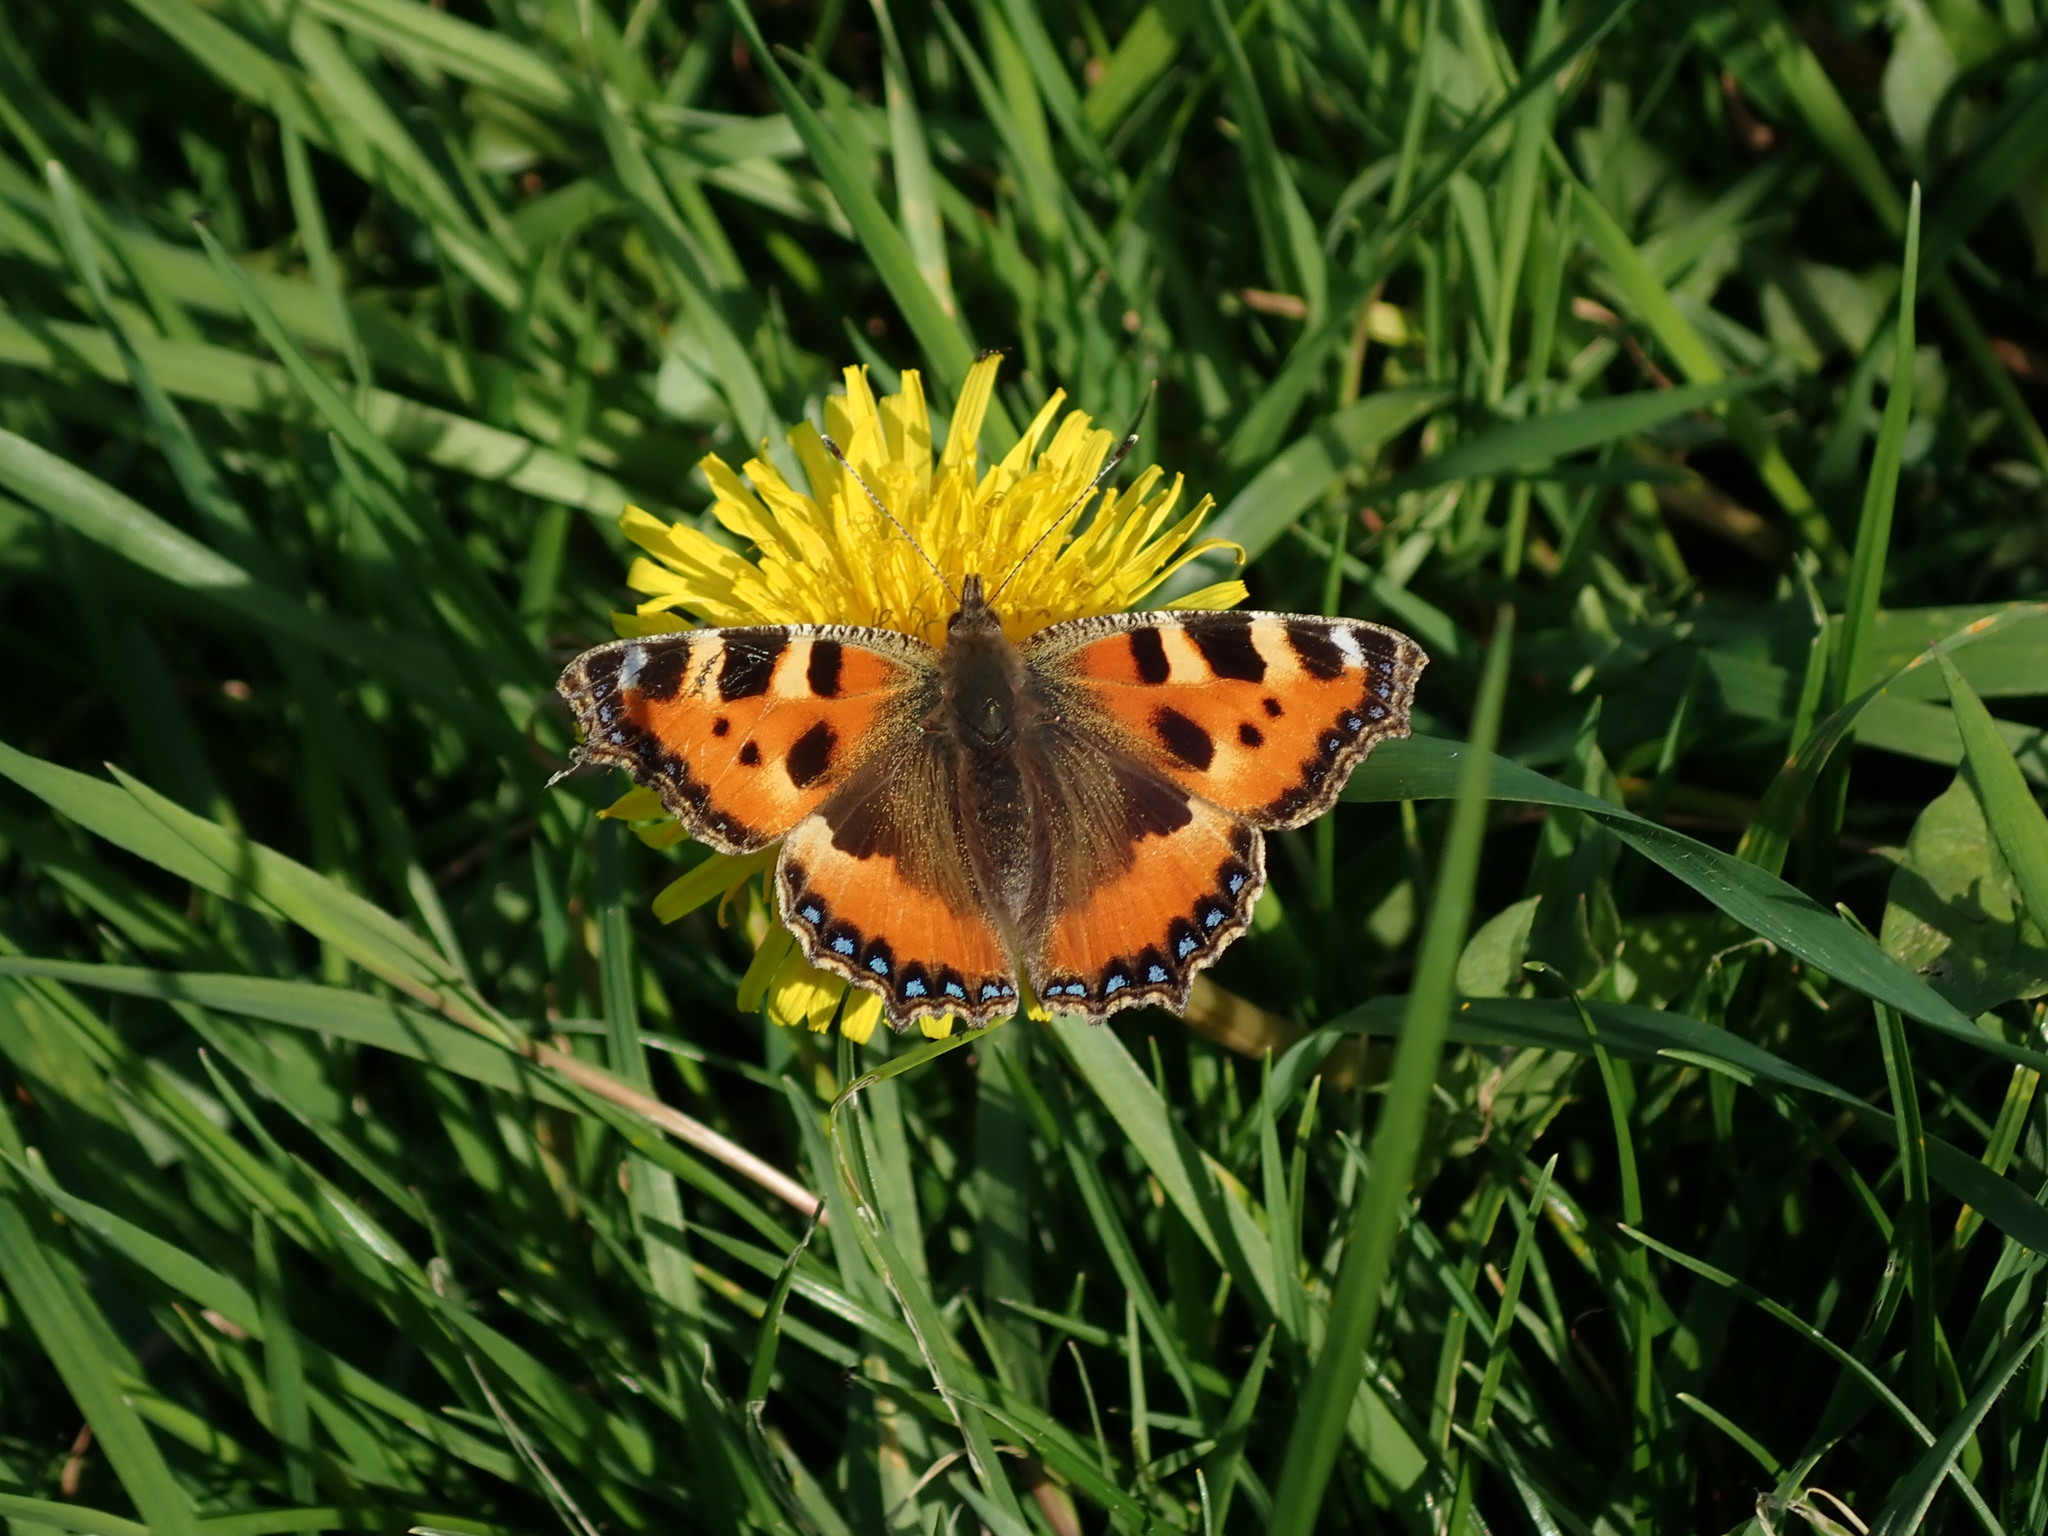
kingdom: Animalia
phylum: Arthropoda
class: Insecta
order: Lepidoptera
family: Nymphalidae
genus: Aglais
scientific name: Aglais urticae
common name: Small tortoiseshell
